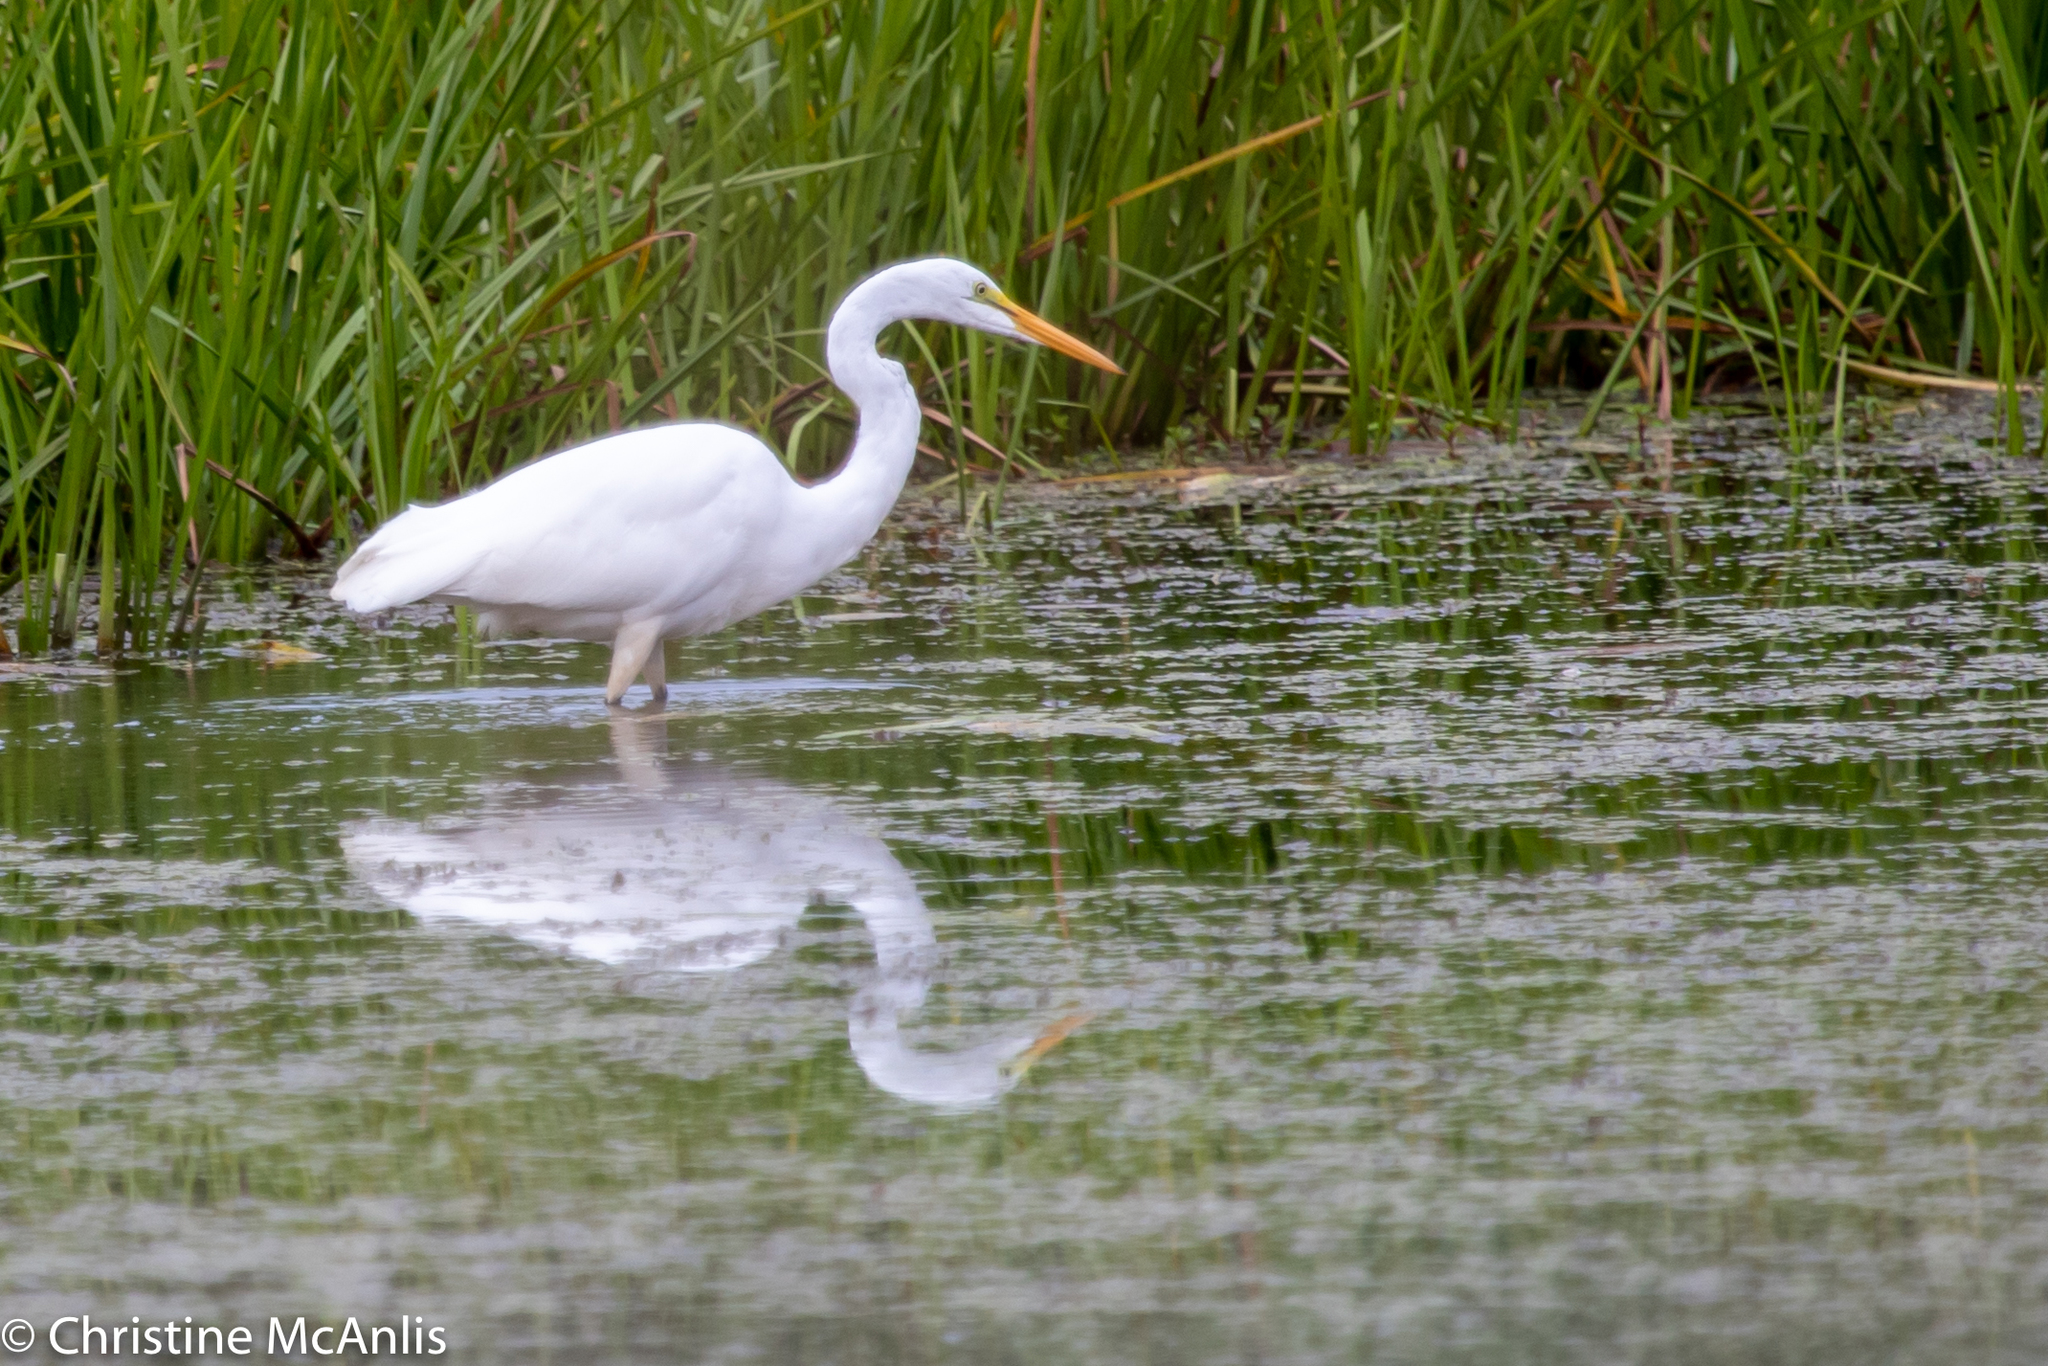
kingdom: Animalia
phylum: Chordata
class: Aves
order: Pelecaniformes
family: Ardeidae
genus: Ardea
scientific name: Ardea alba
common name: Great egret
